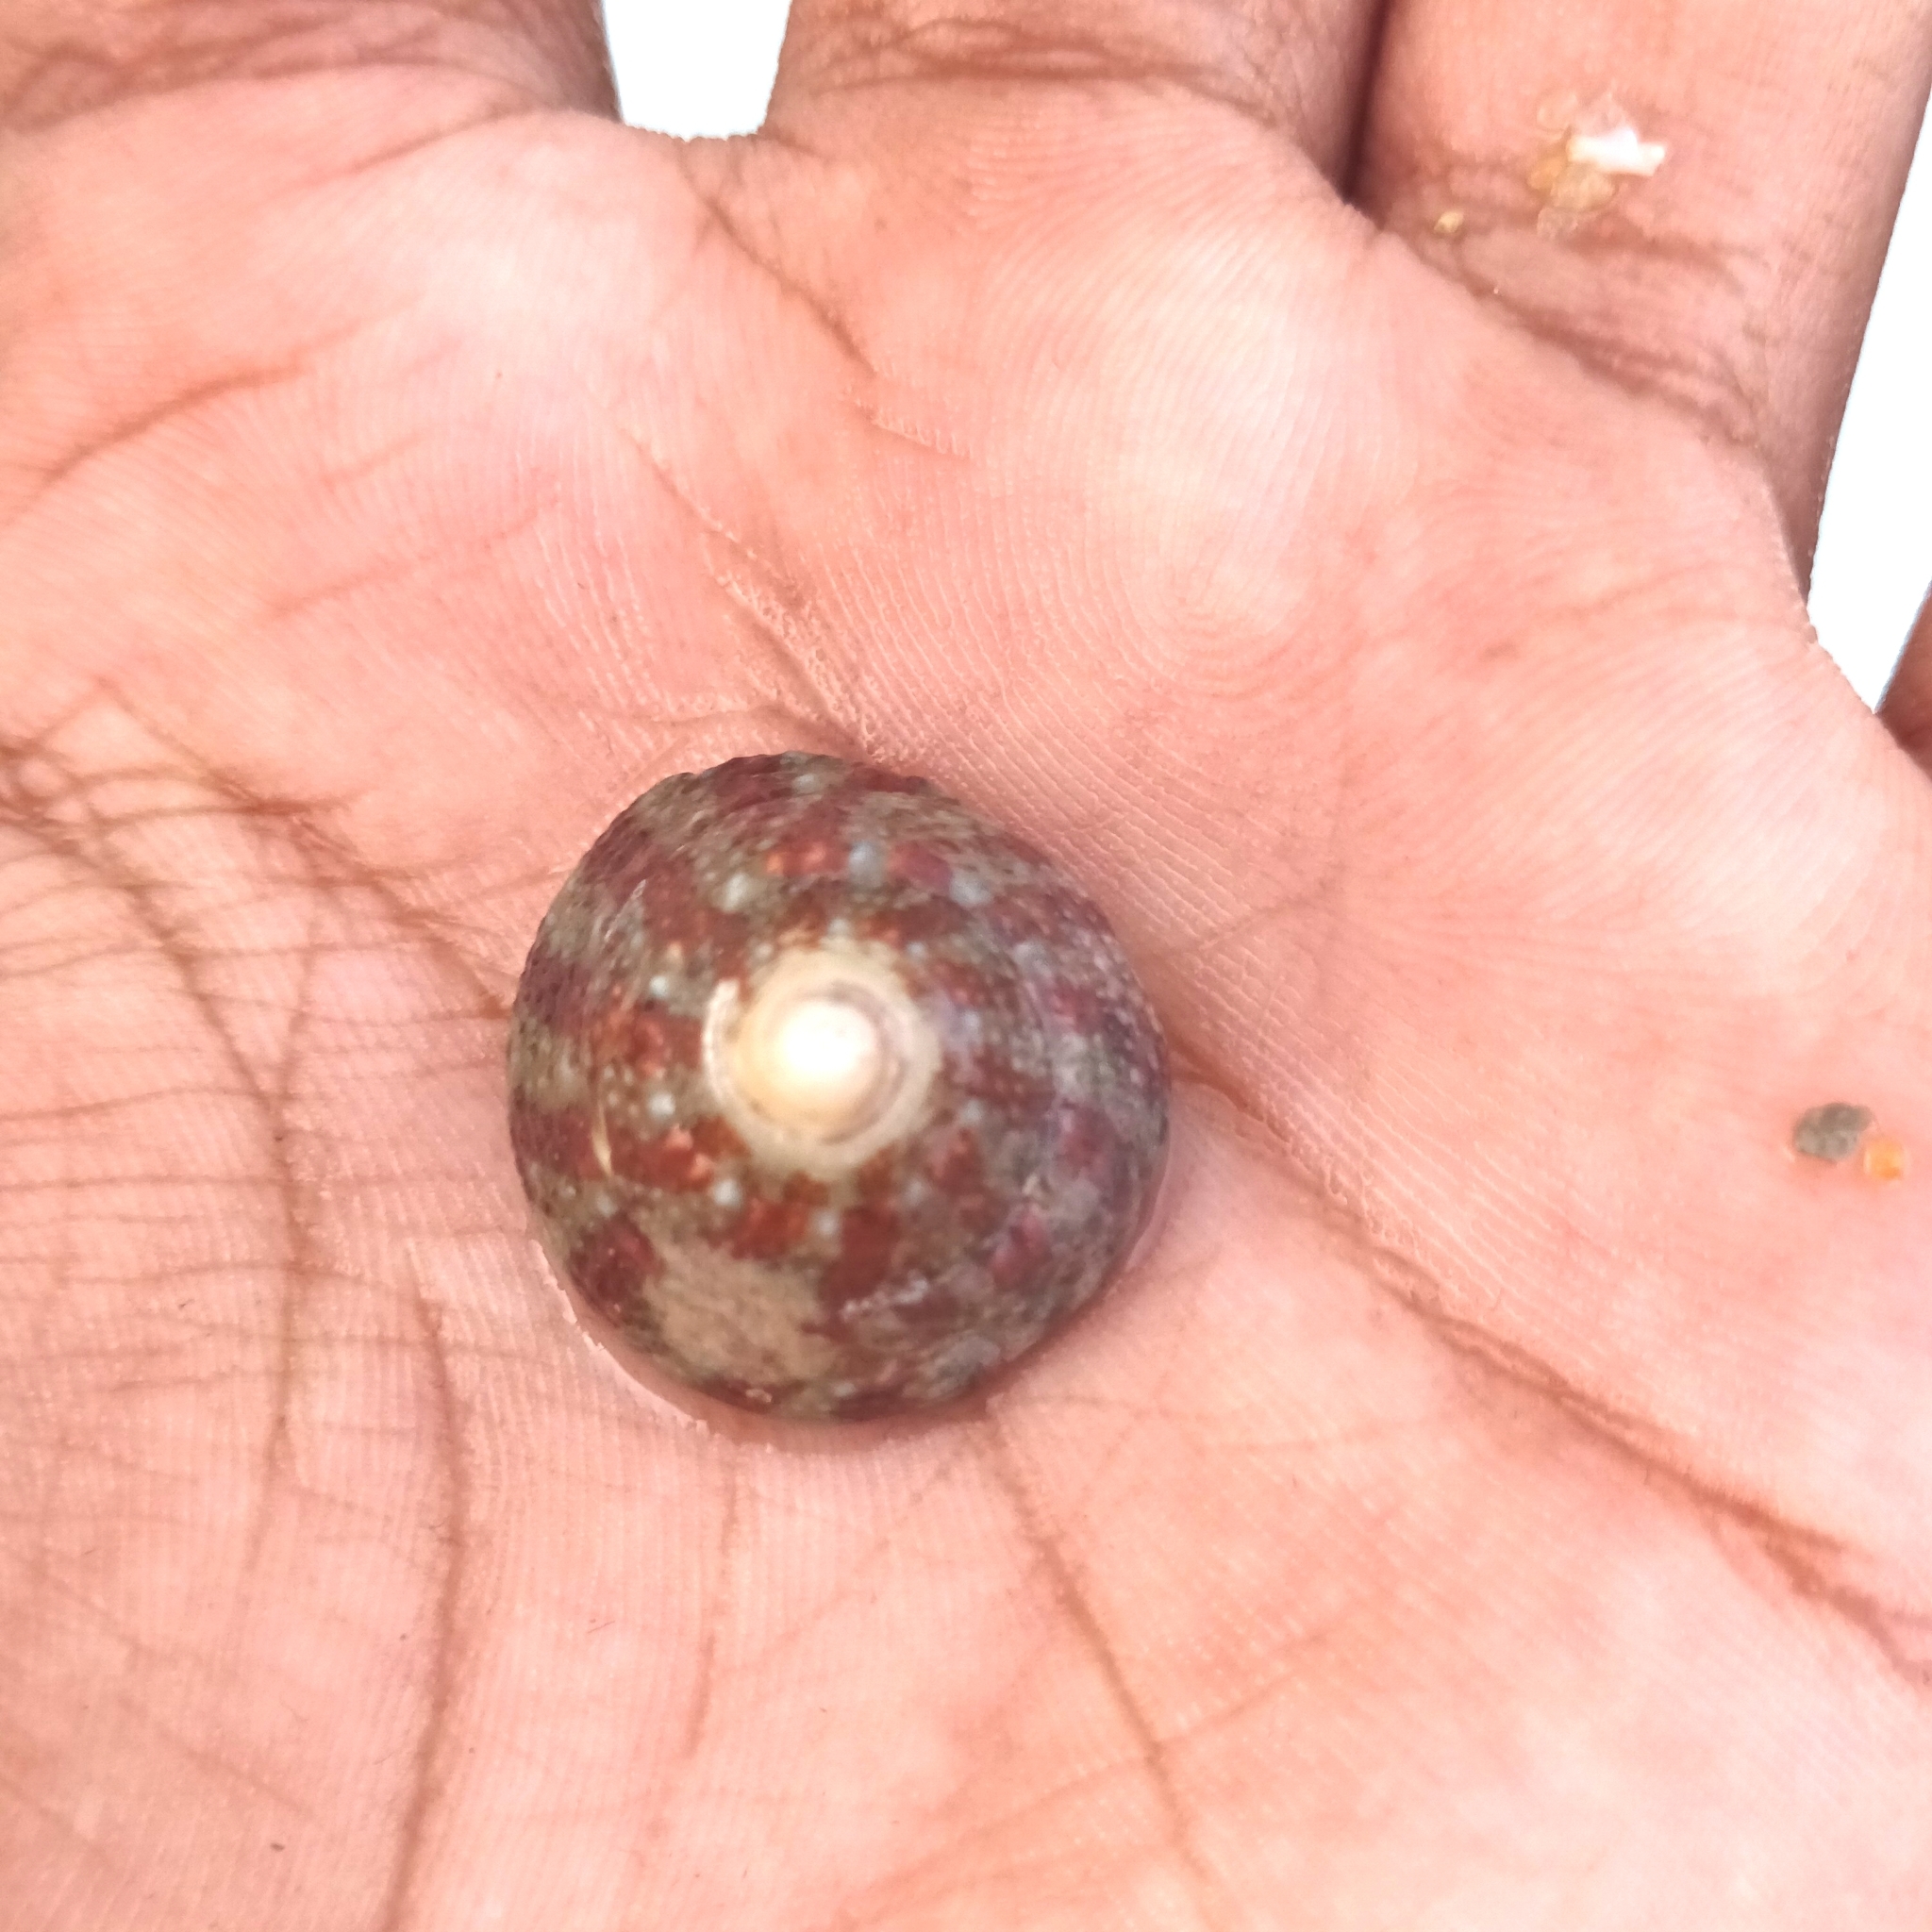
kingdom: Animalia
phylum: Mollusca
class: Gastropoda
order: Trochida
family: Trochidae
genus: Trochus
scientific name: Trochus radiatus
